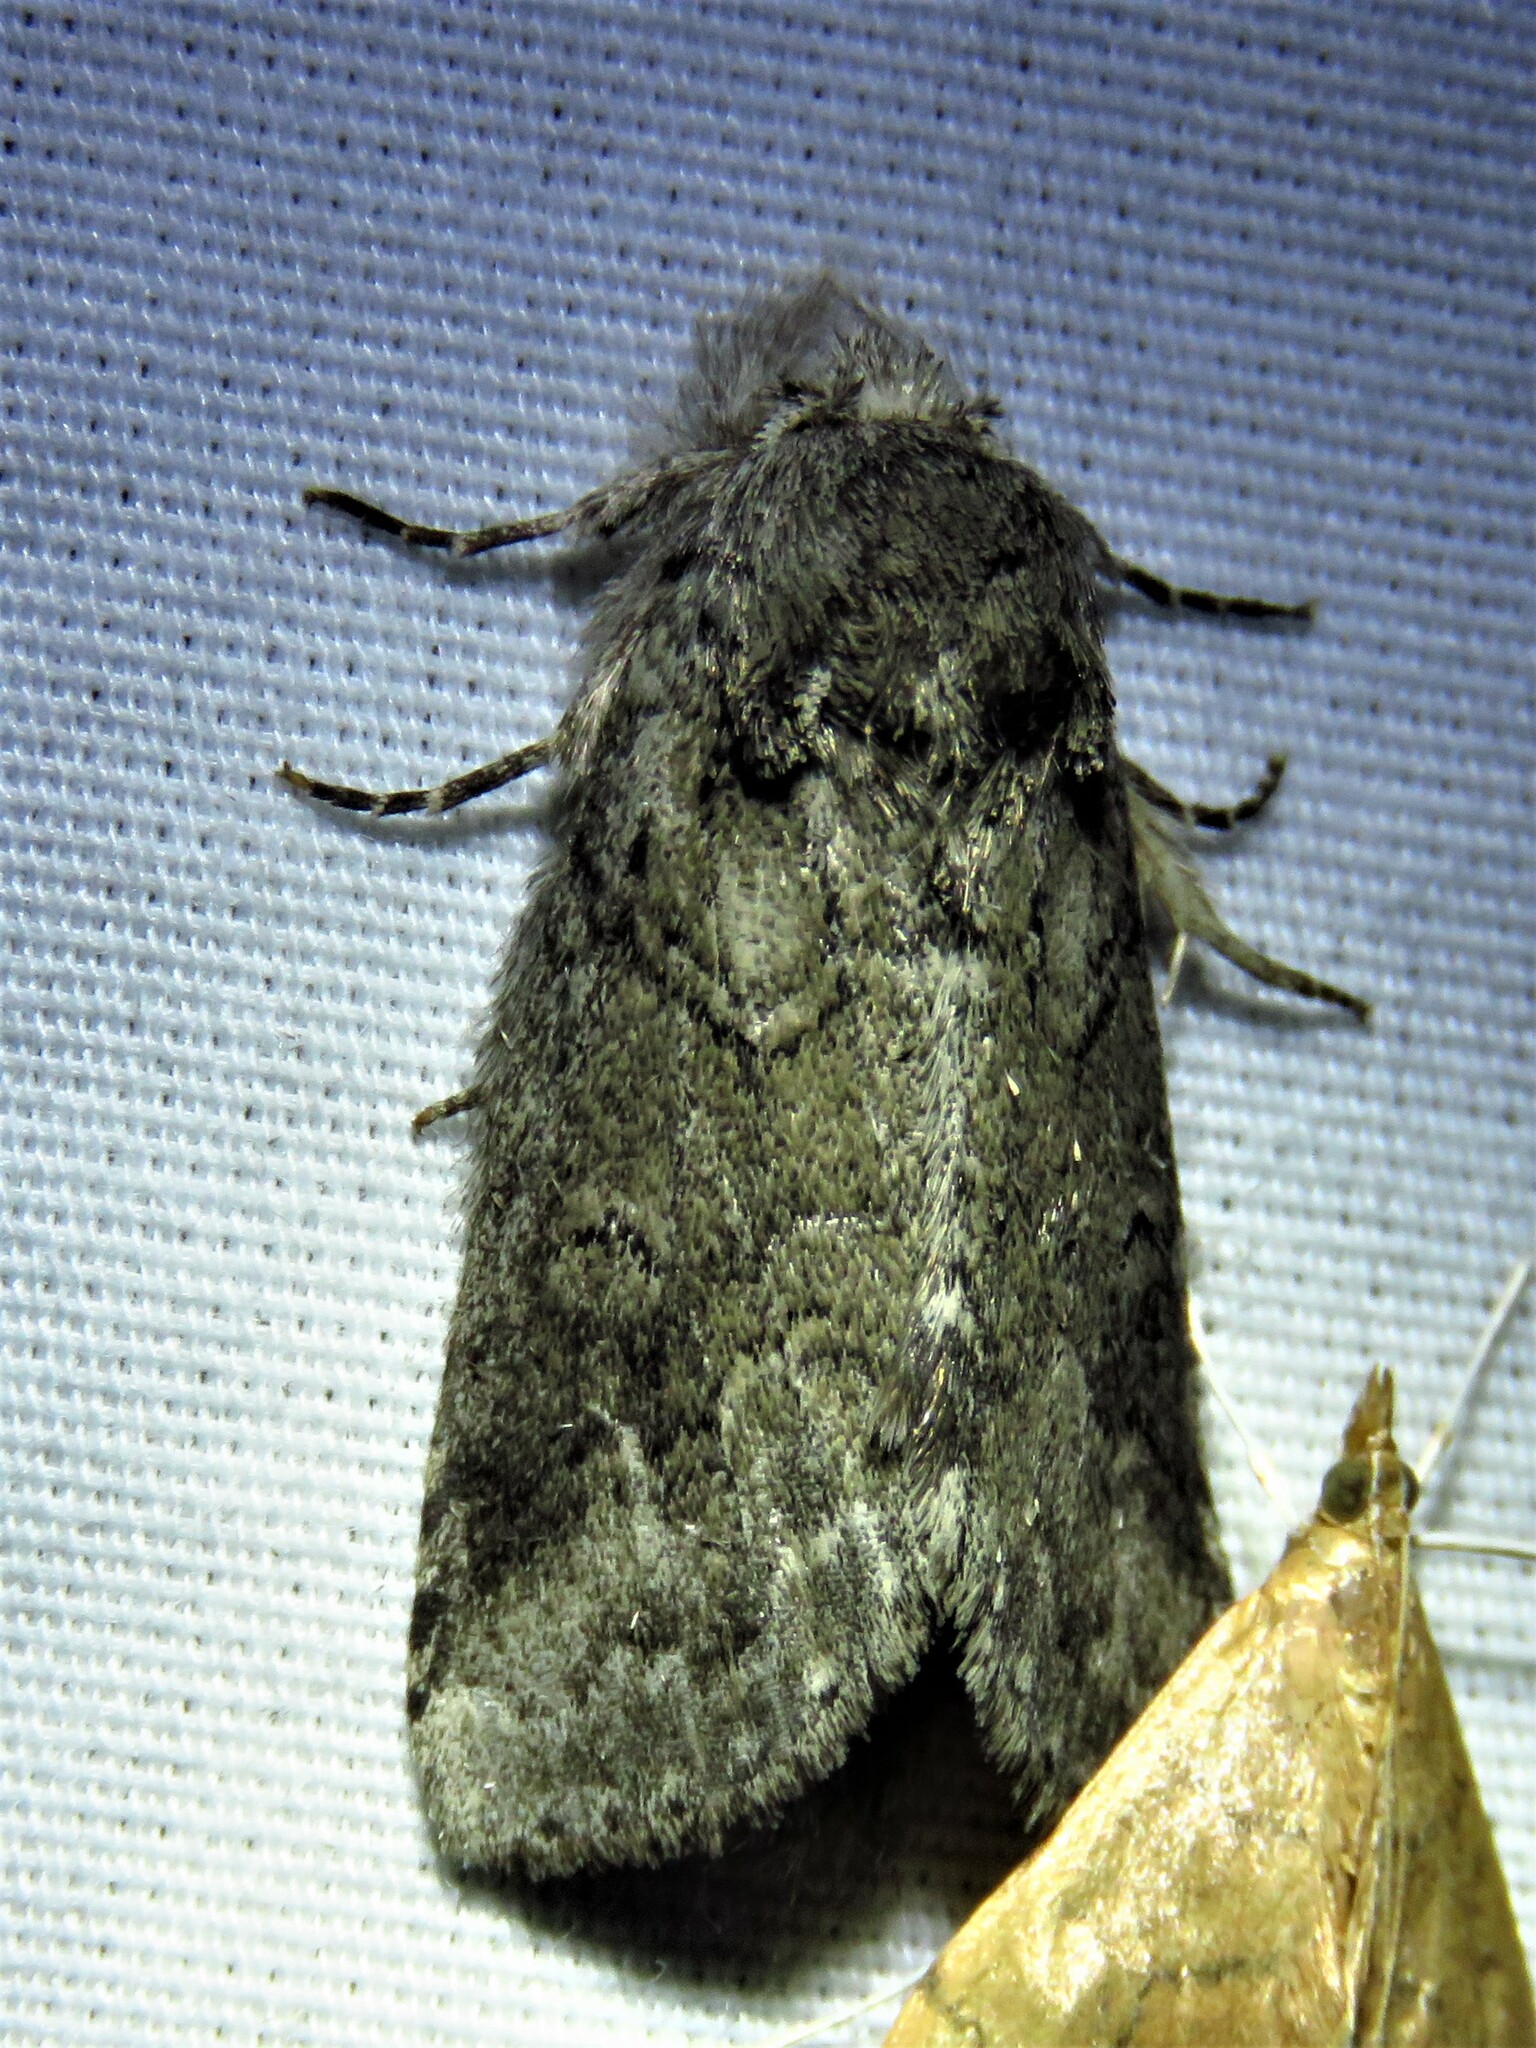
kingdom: Animalia
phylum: Arthropoda
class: Insecta
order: Lepidoptera
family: Notodontidae
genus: Lochmaeus
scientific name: Lochmaeus bilineata
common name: Double-lined prominent
